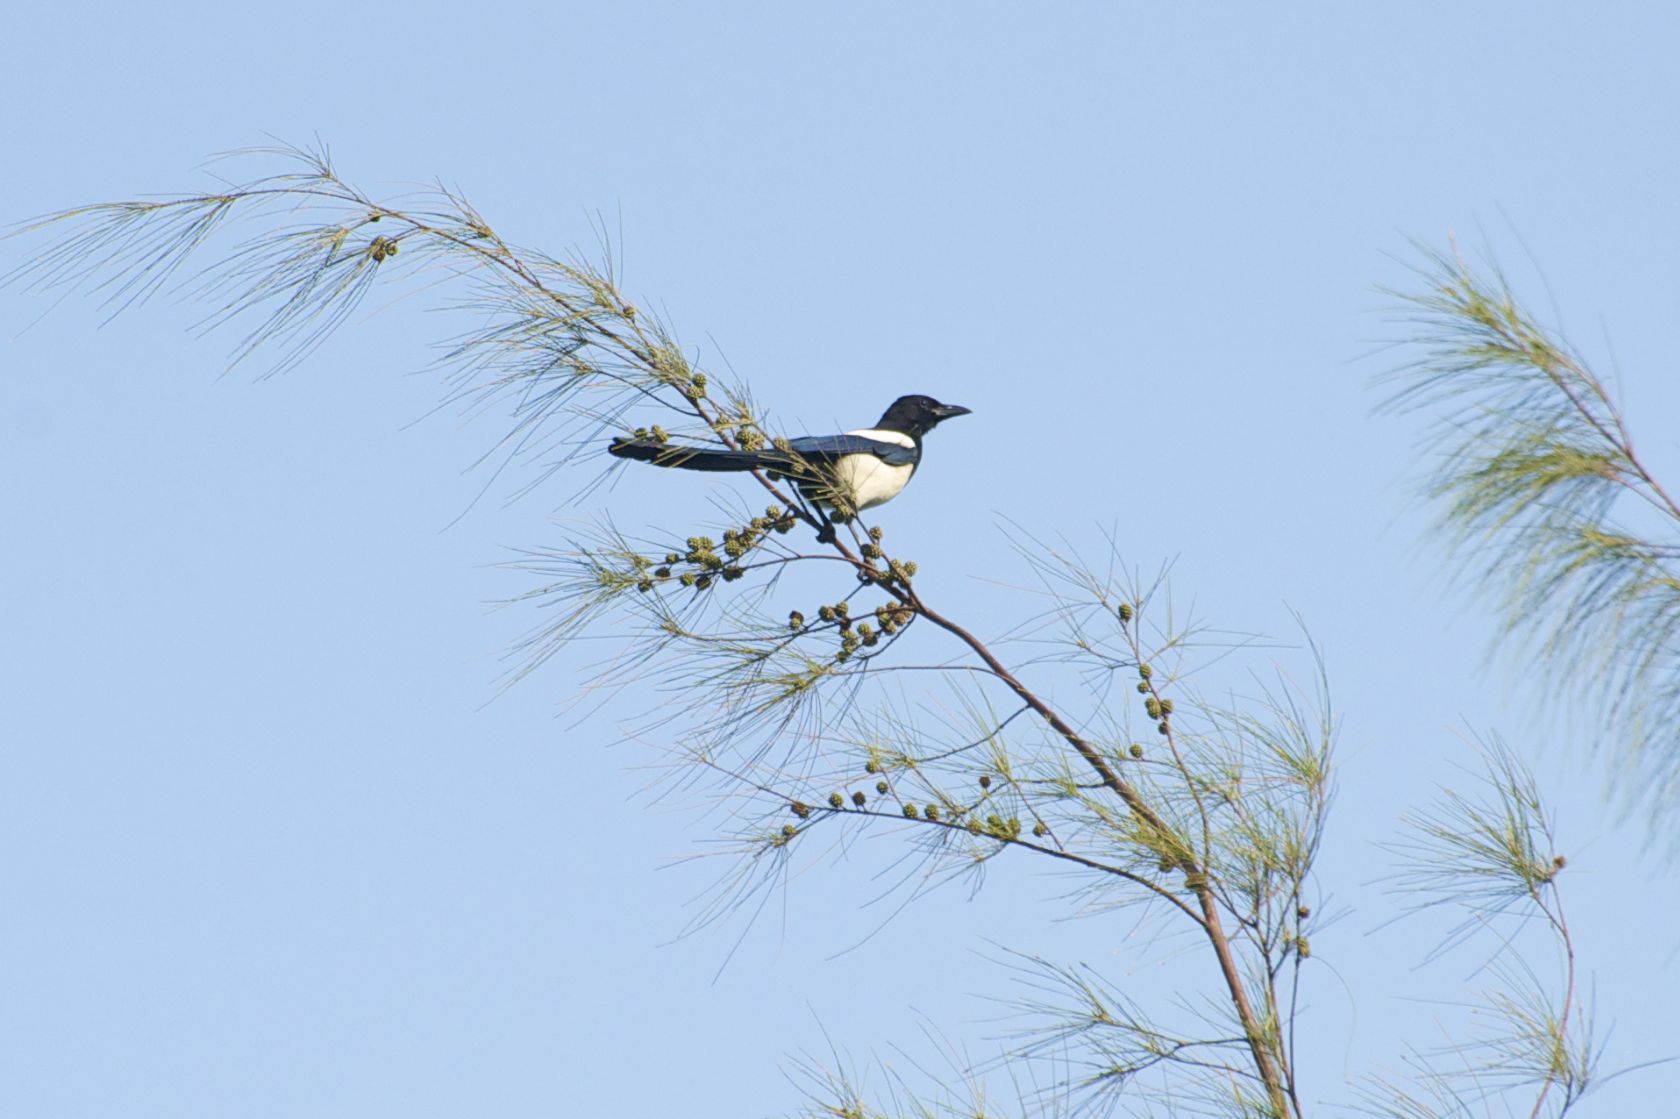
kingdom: Animalia
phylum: Chordata
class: Aves
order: Passeriformes
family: Corvidae
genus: Pica
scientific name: Pica serica
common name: Oriental magpie
